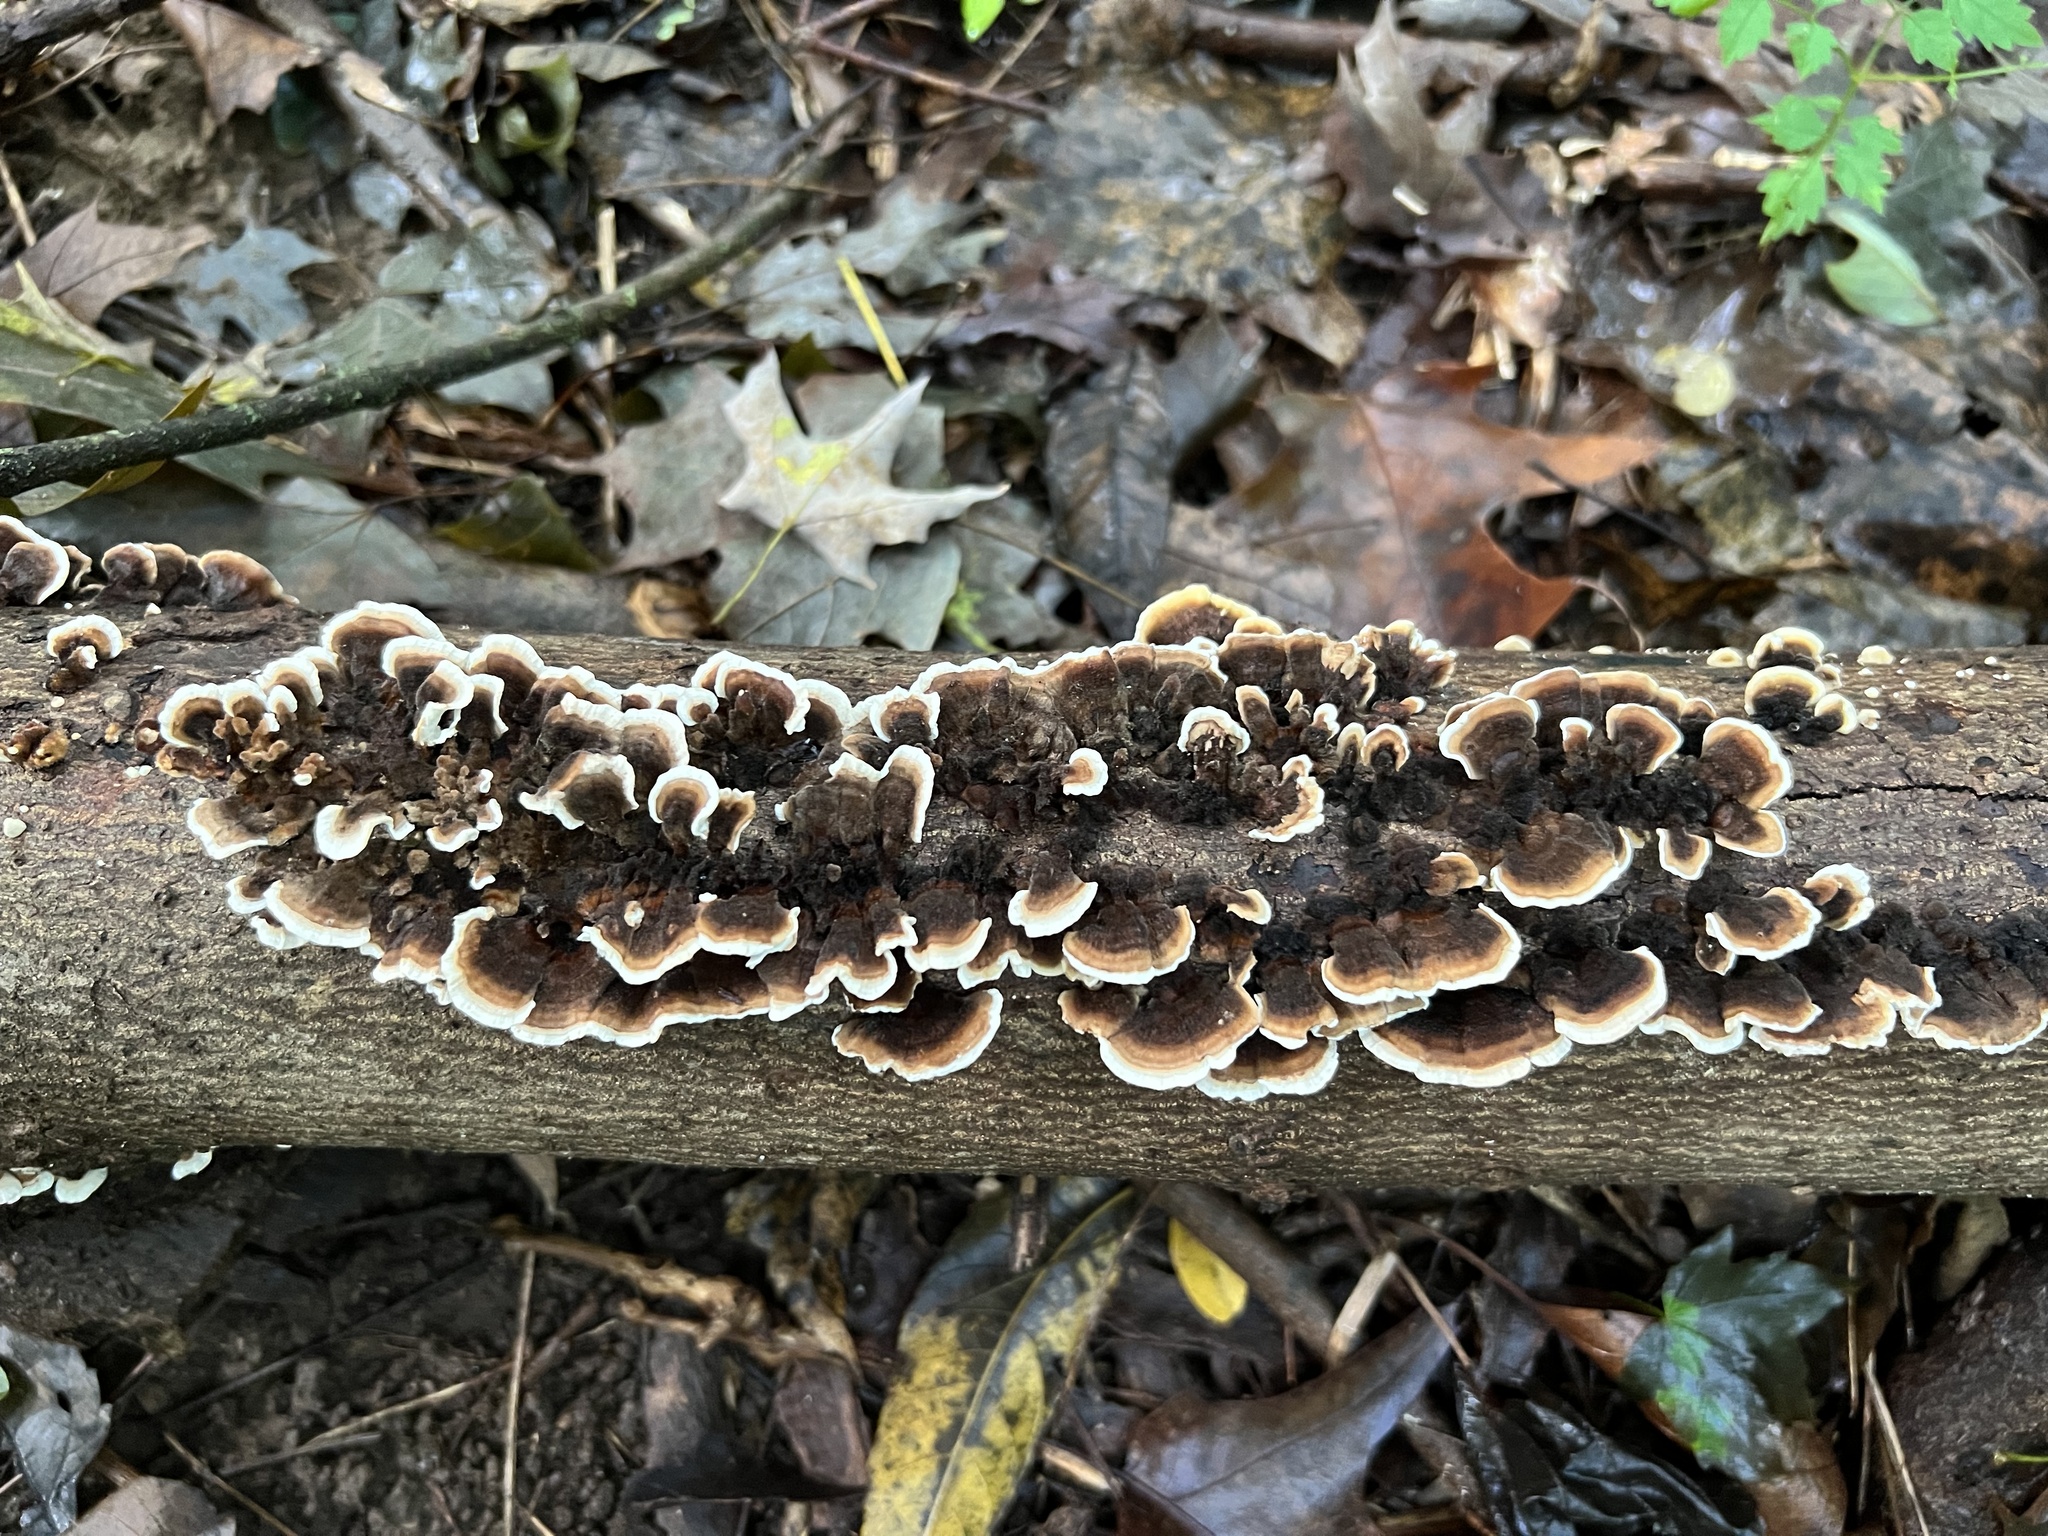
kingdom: Fungi
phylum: Basidiomycota
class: Agaricomycetes
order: Polyporales
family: Polyporaceae
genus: Trametes
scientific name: Trametes versicolor
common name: Turkeytail
